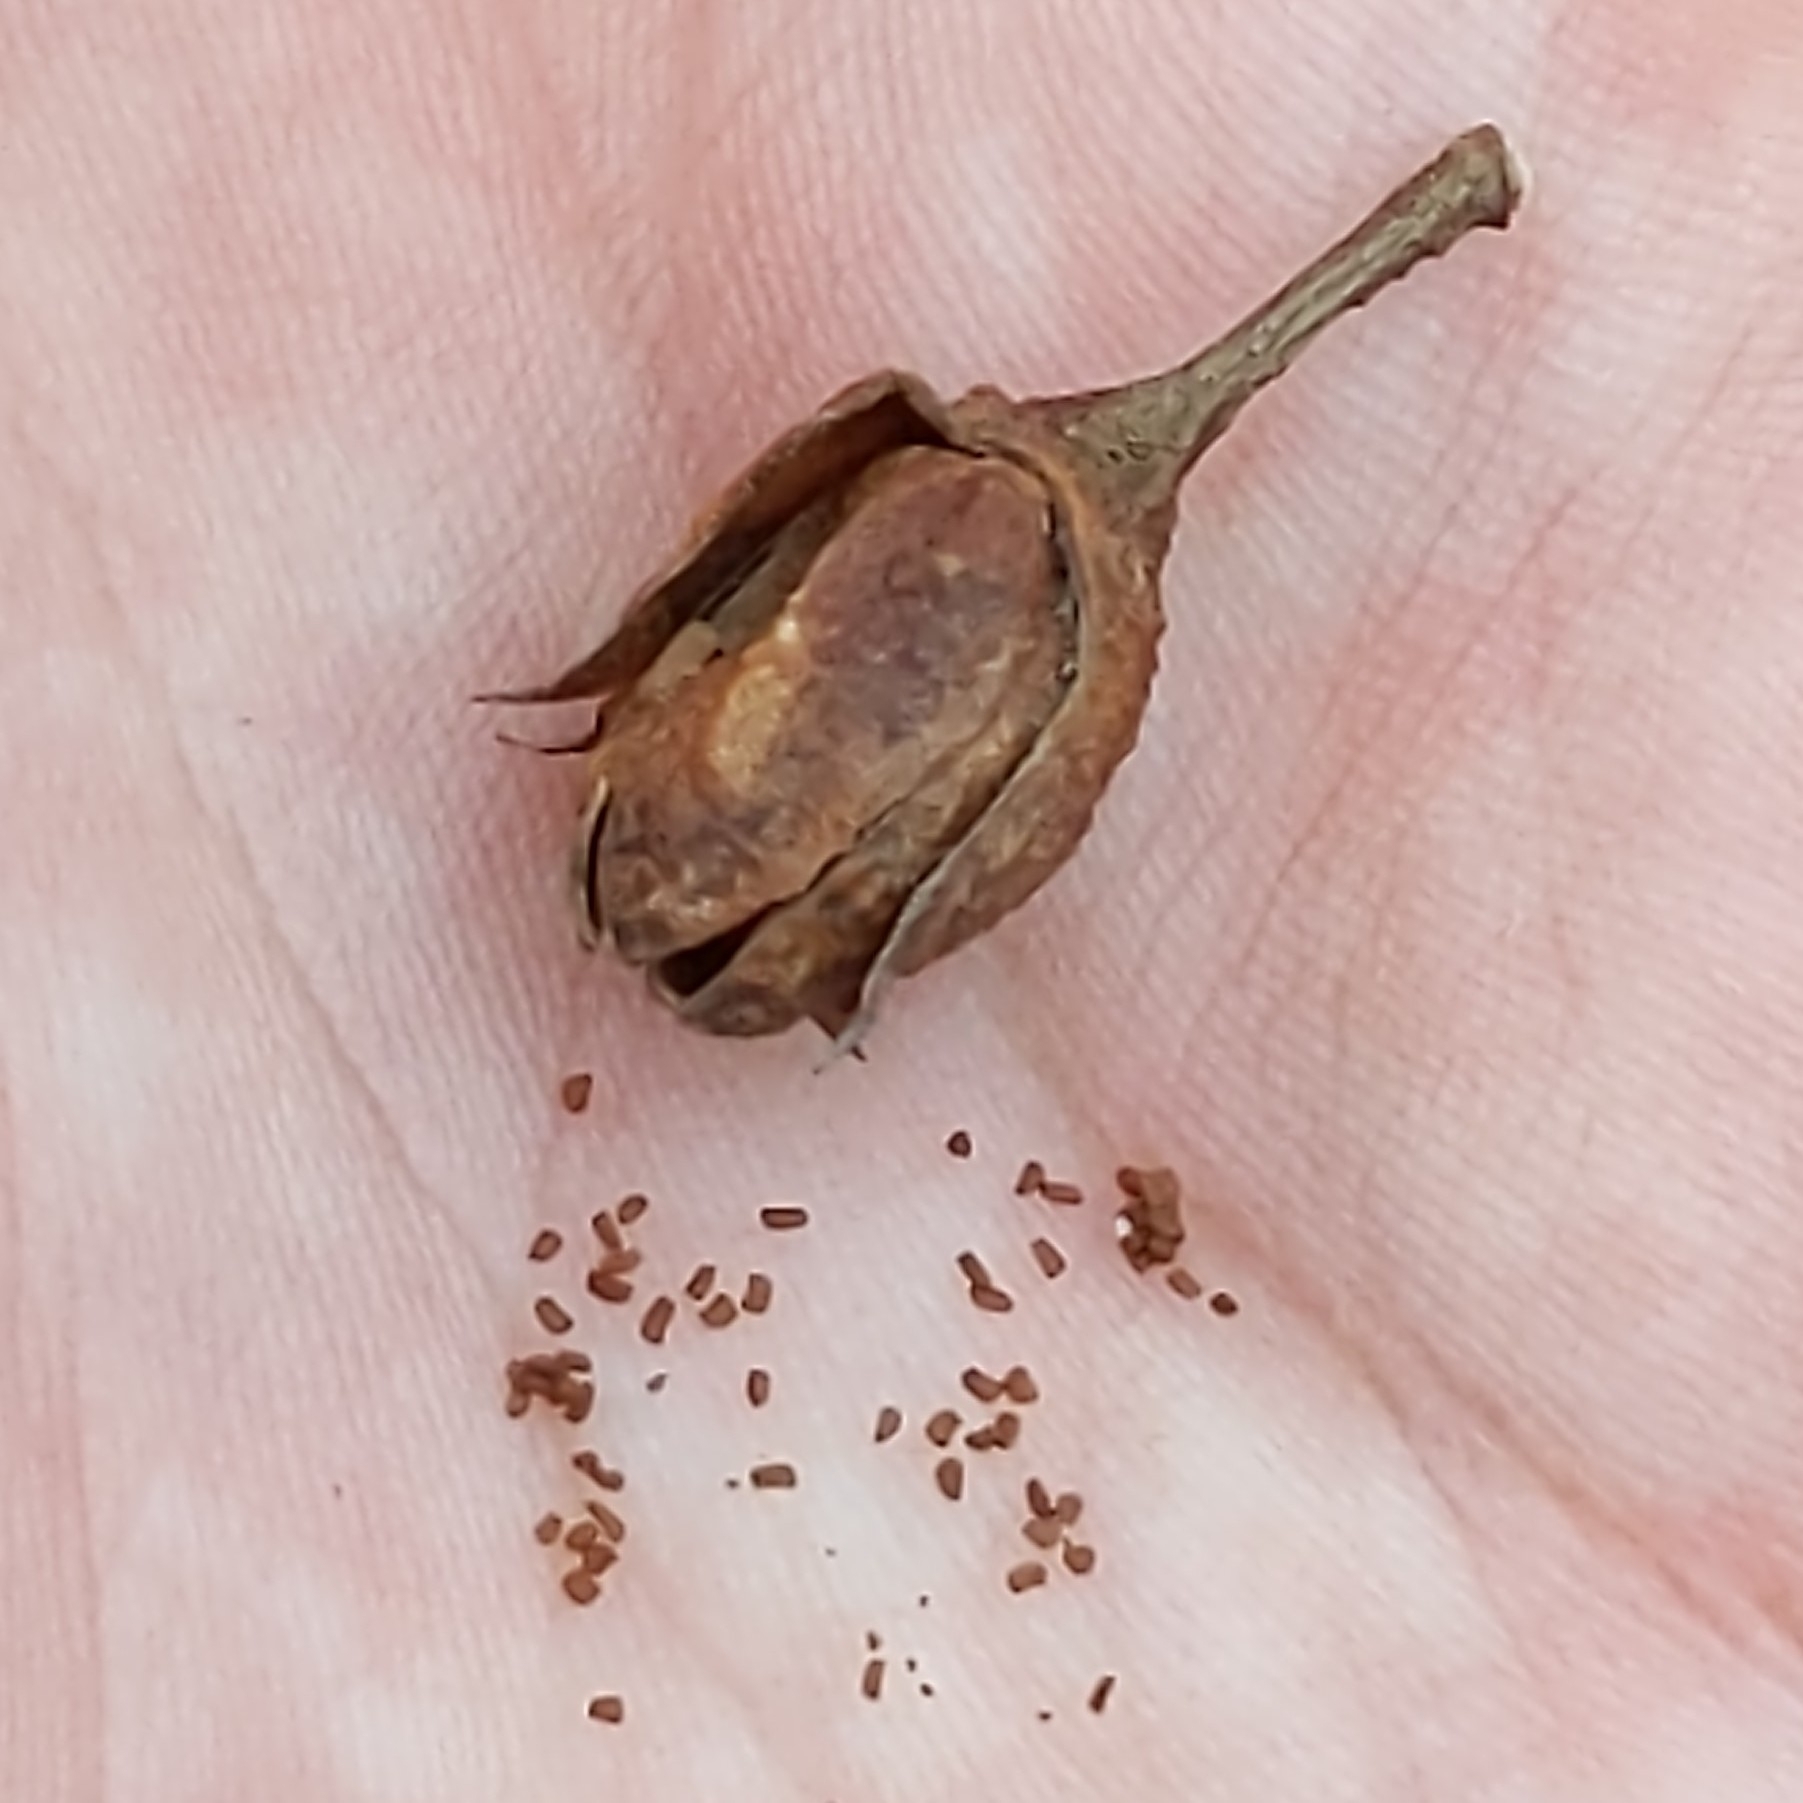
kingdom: Plantae
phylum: Tracheophyta
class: Magnoliopsida
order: Solanales
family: Solanaceae
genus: Nicotiana
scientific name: Nicotiana glauca
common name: Tree tobacco
